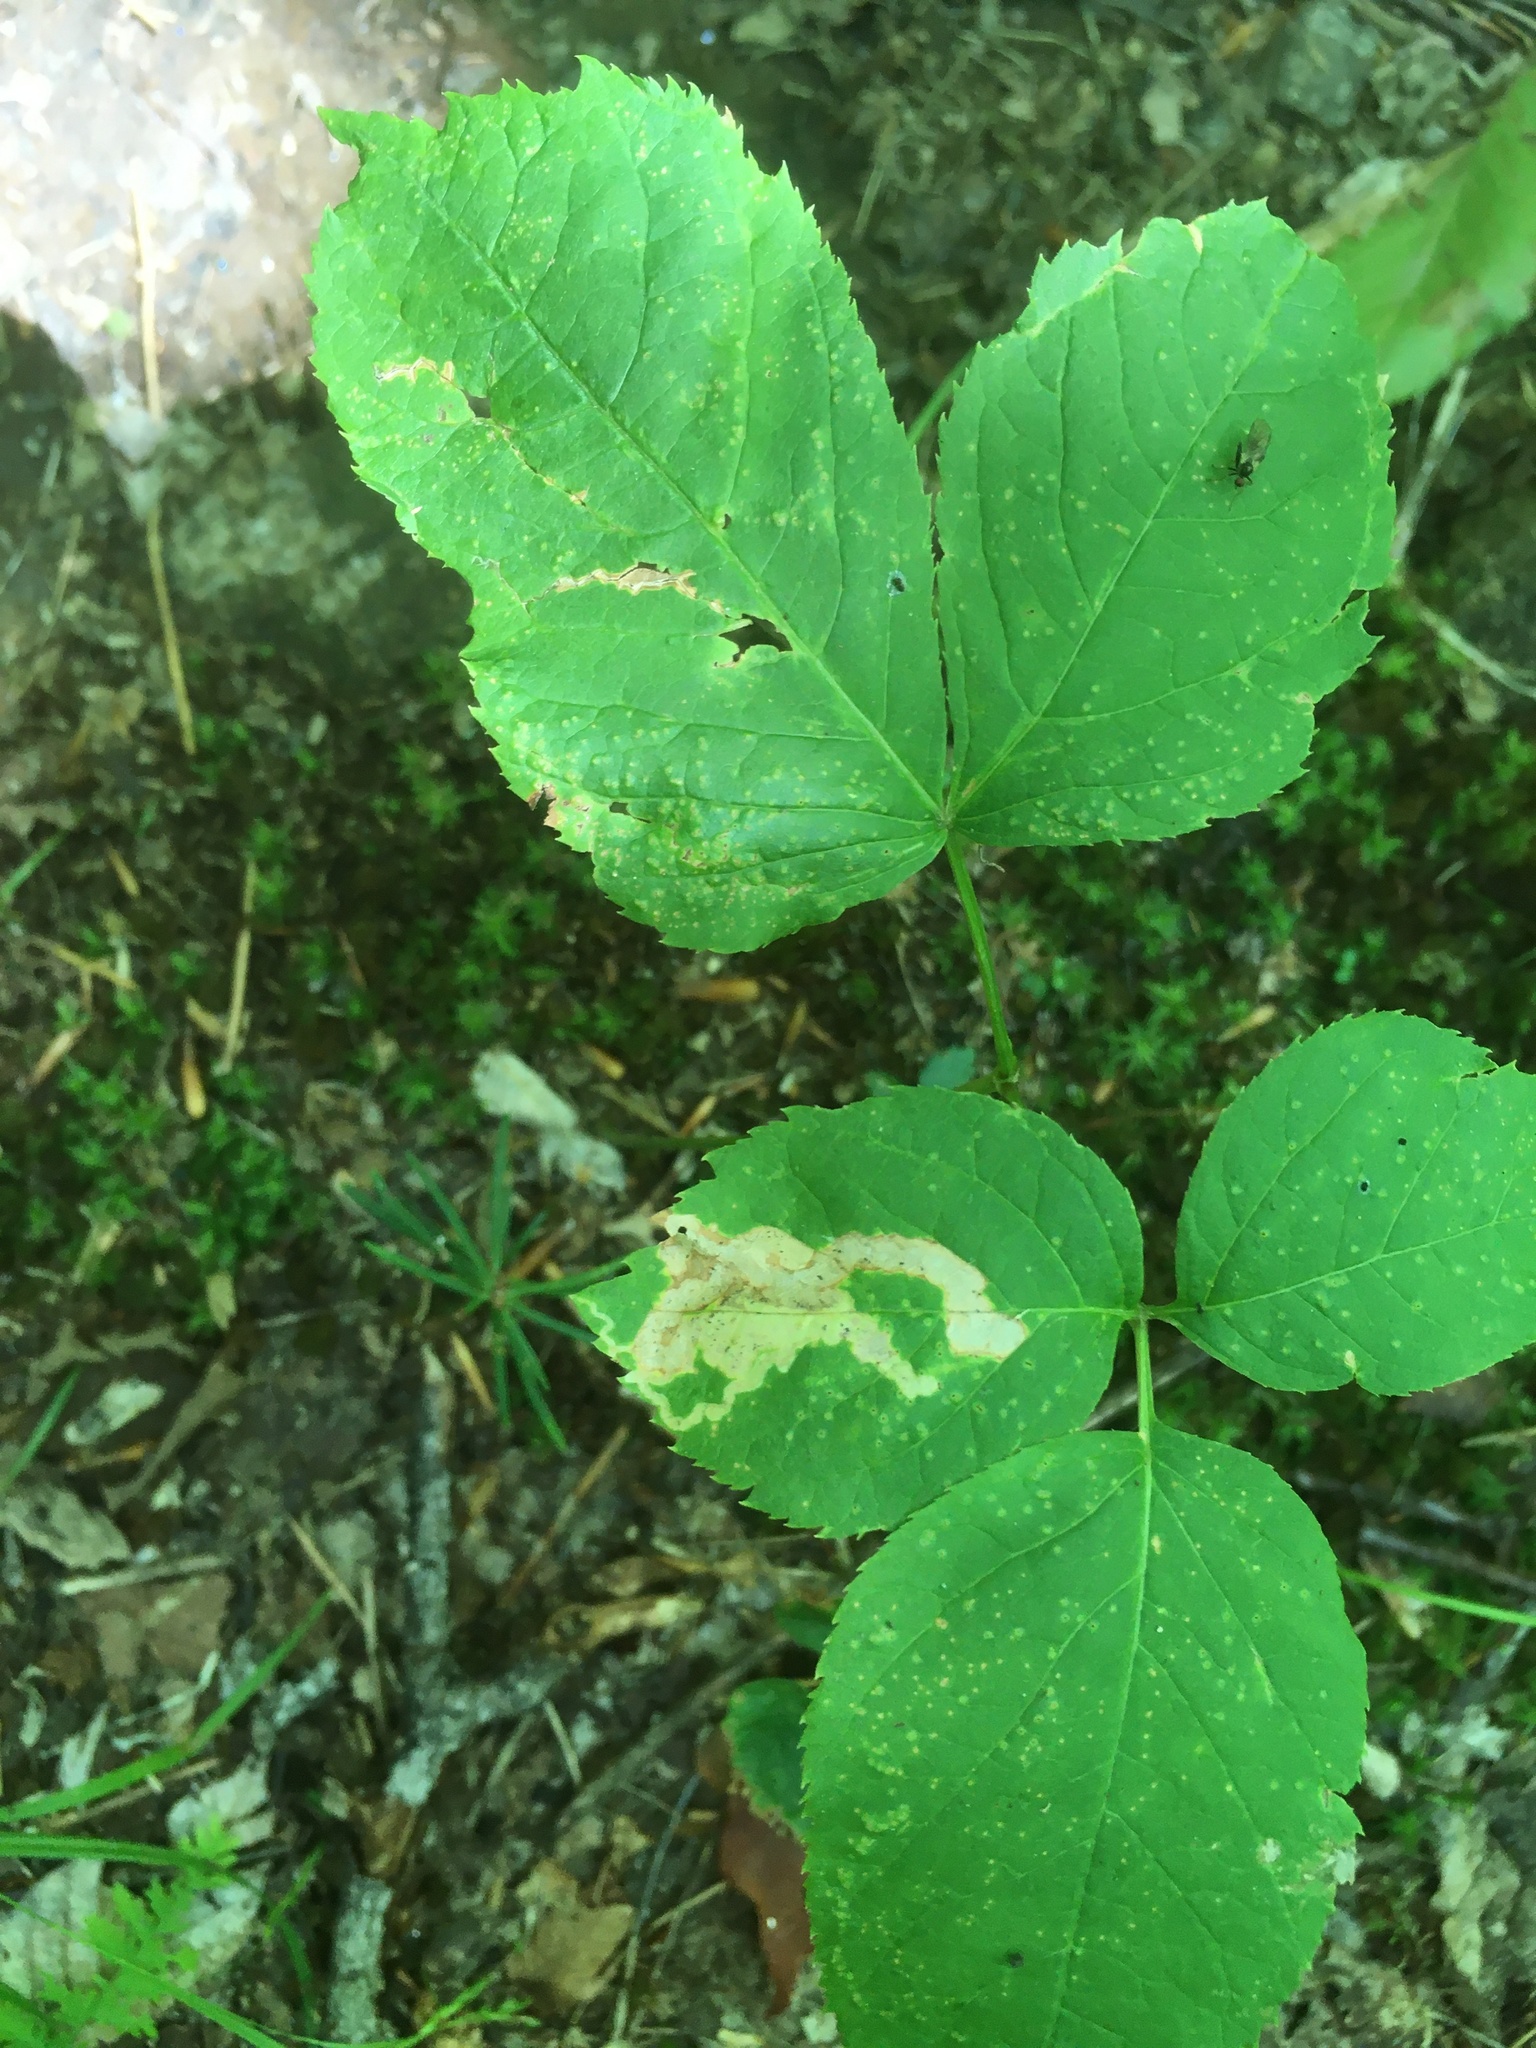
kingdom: Animalia
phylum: Arthropoda
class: Insecta
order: Diptera
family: Agromyzidae
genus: Phytomyza
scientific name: Phytomyza aralivora
